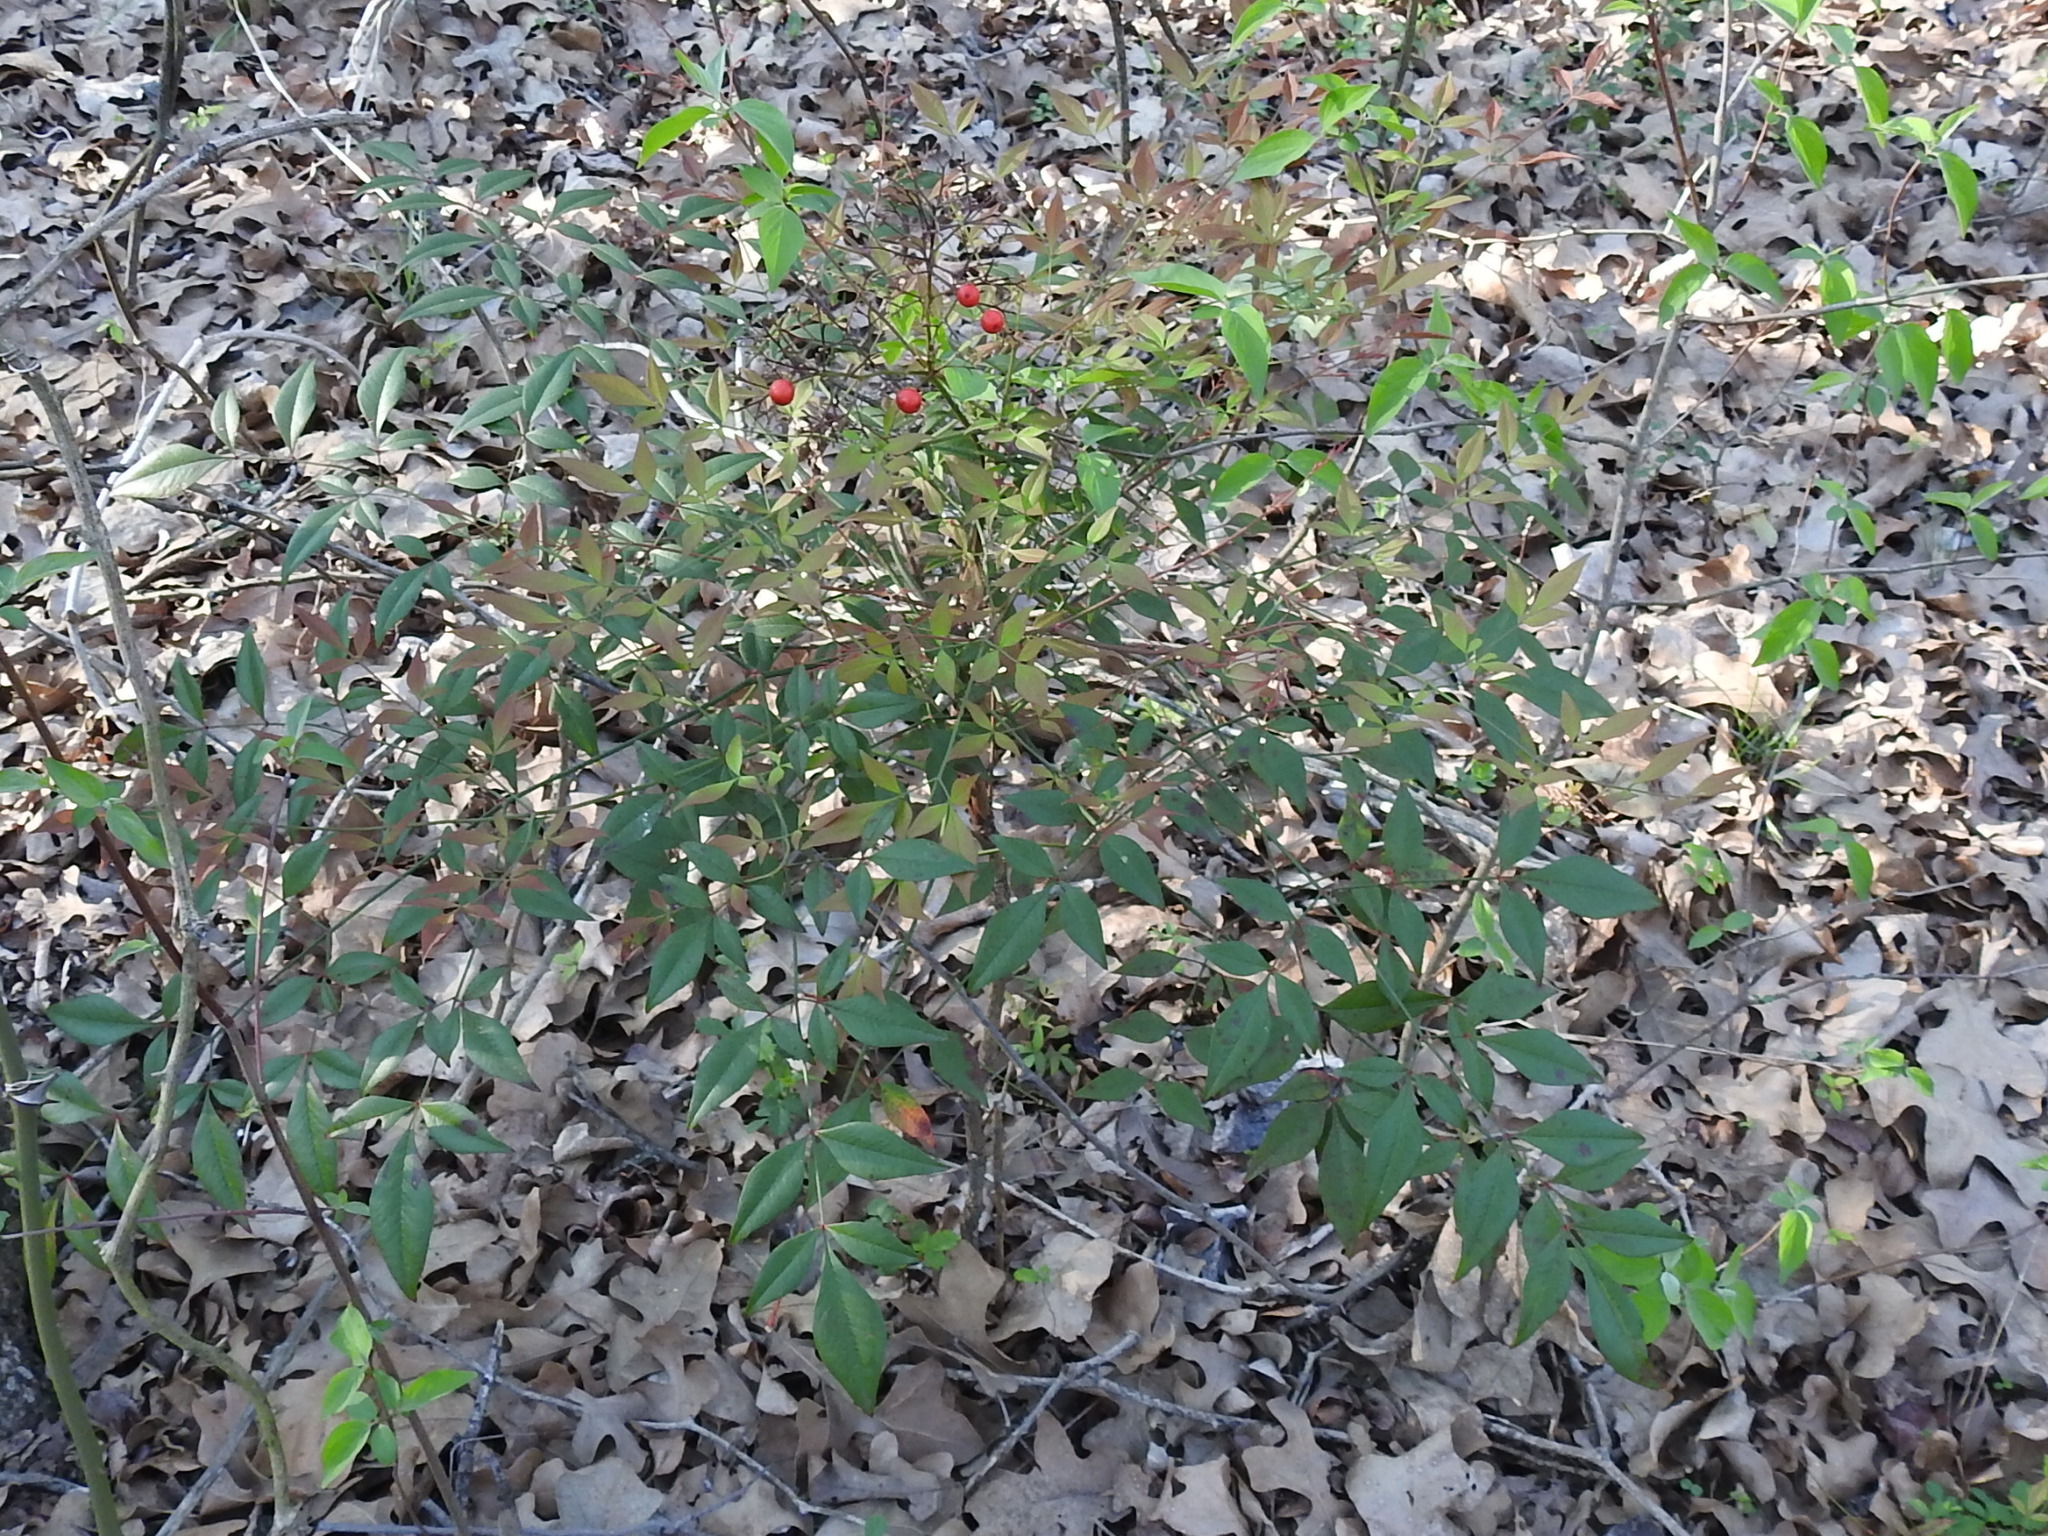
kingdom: Plantae
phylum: Tracheophyta
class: Magnoliopsida
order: Ranunculales
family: Berberidaceae
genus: Nandina
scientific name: Nandina domestica
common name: Sacred bamboo
